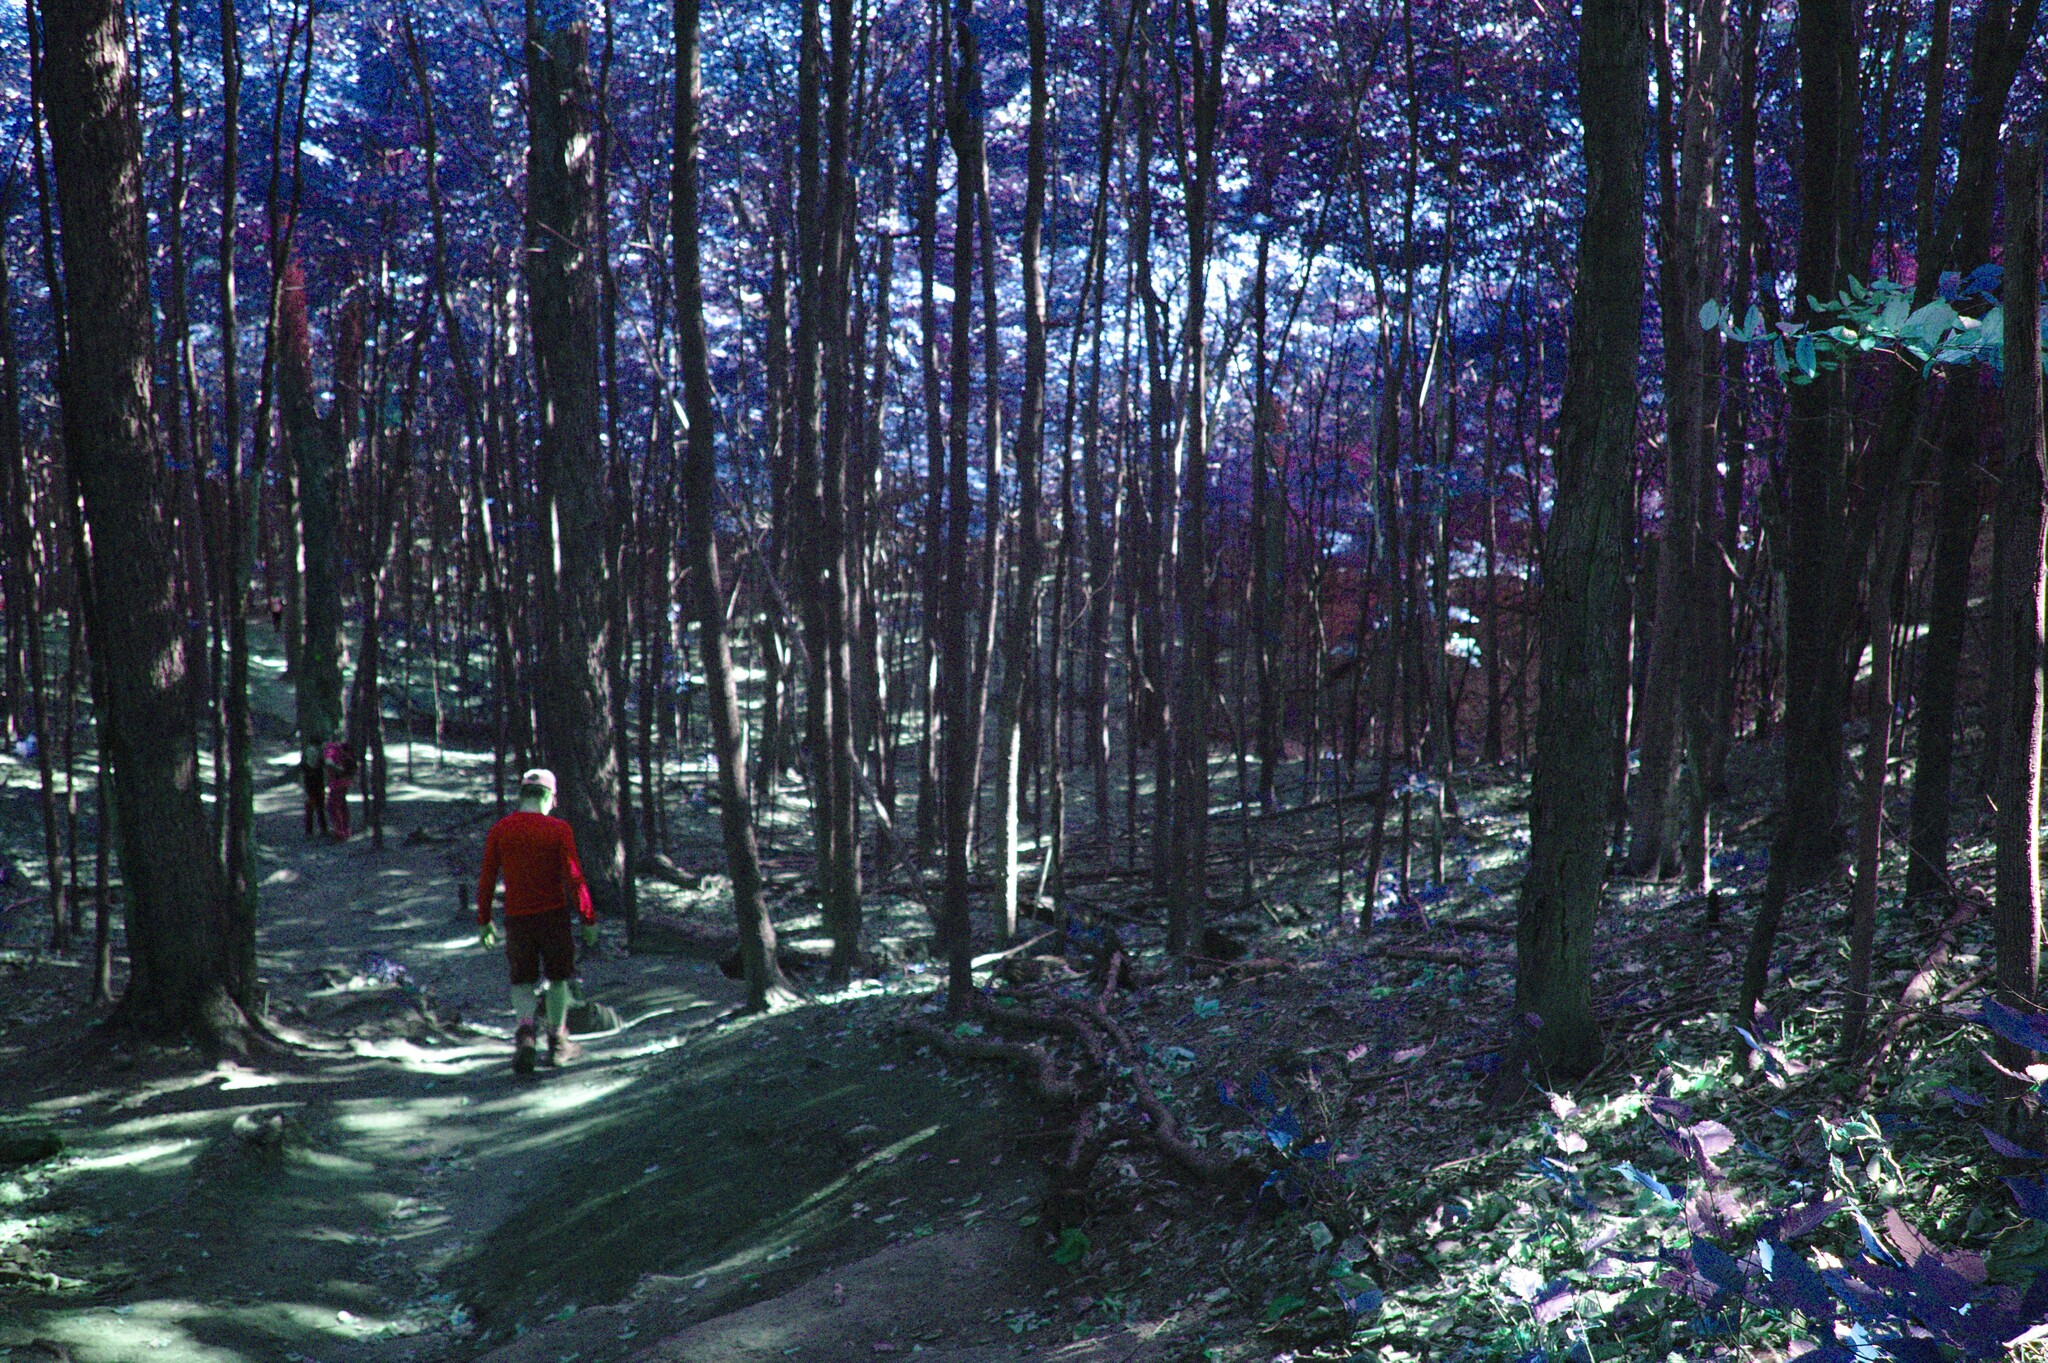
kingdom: Plantae
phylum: Tracheophyta
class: Magnoliopsida
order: Sapindales
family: Sapindaceae
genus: Acer
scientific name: Acer saccharum
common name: Sugar maple
